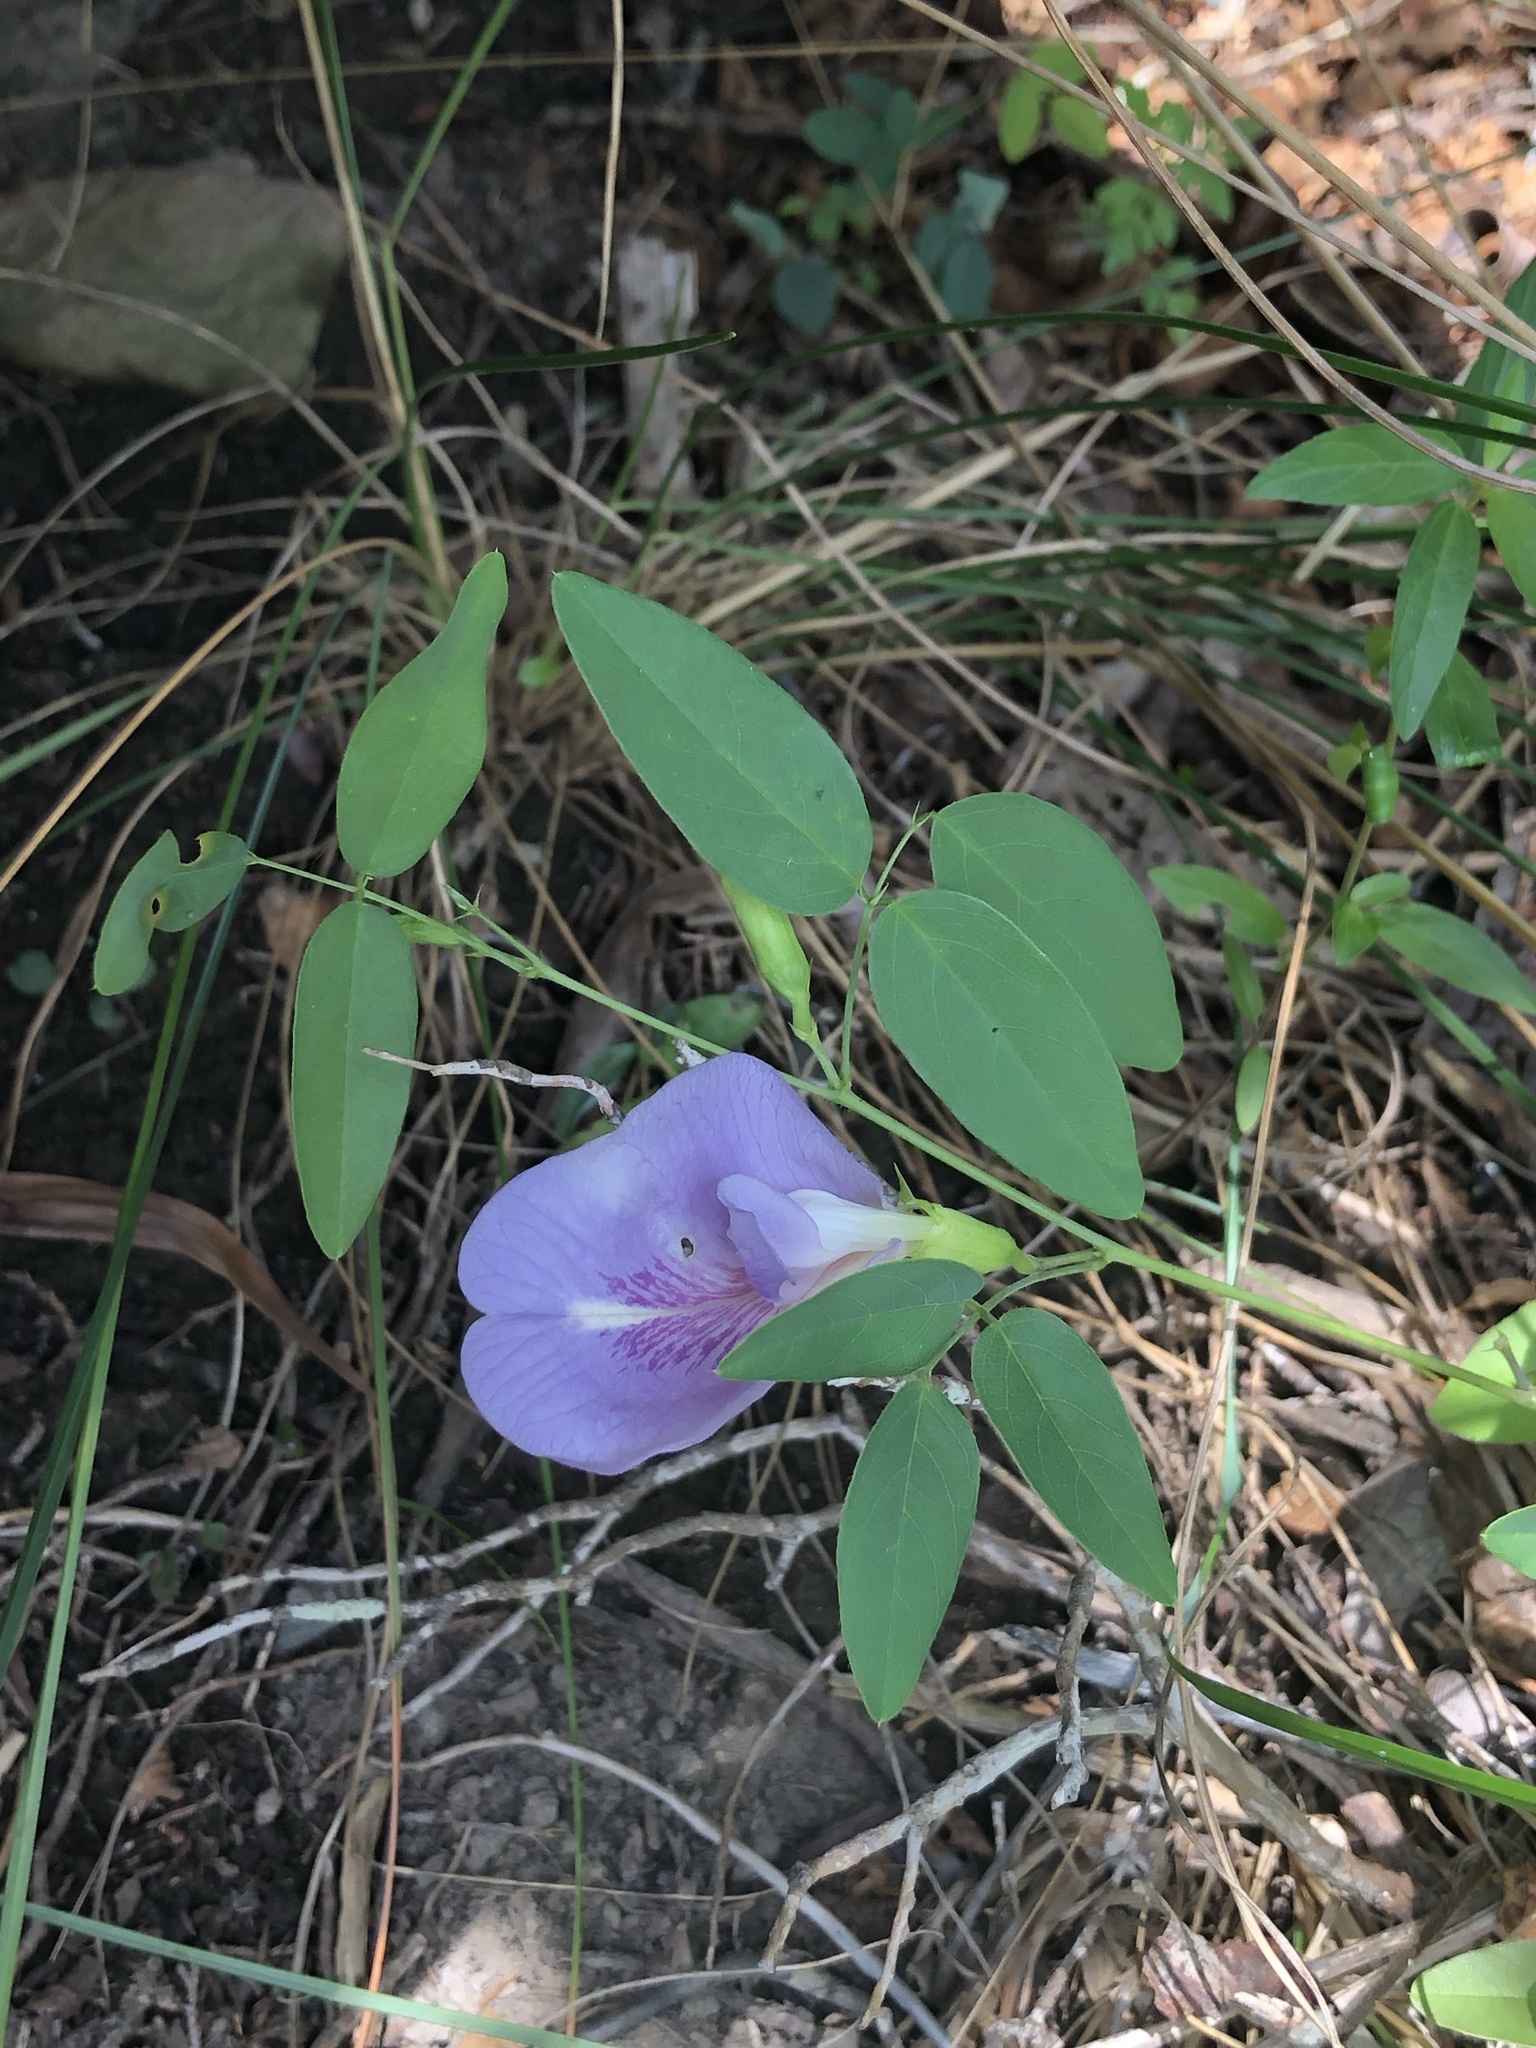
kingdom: Plantae
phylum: Tracheophyta
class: Magnoliopsida
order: Fabales
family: Fabaceae
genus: Clitoria
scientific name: Clitoria mariana
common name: Butterfly-pea
